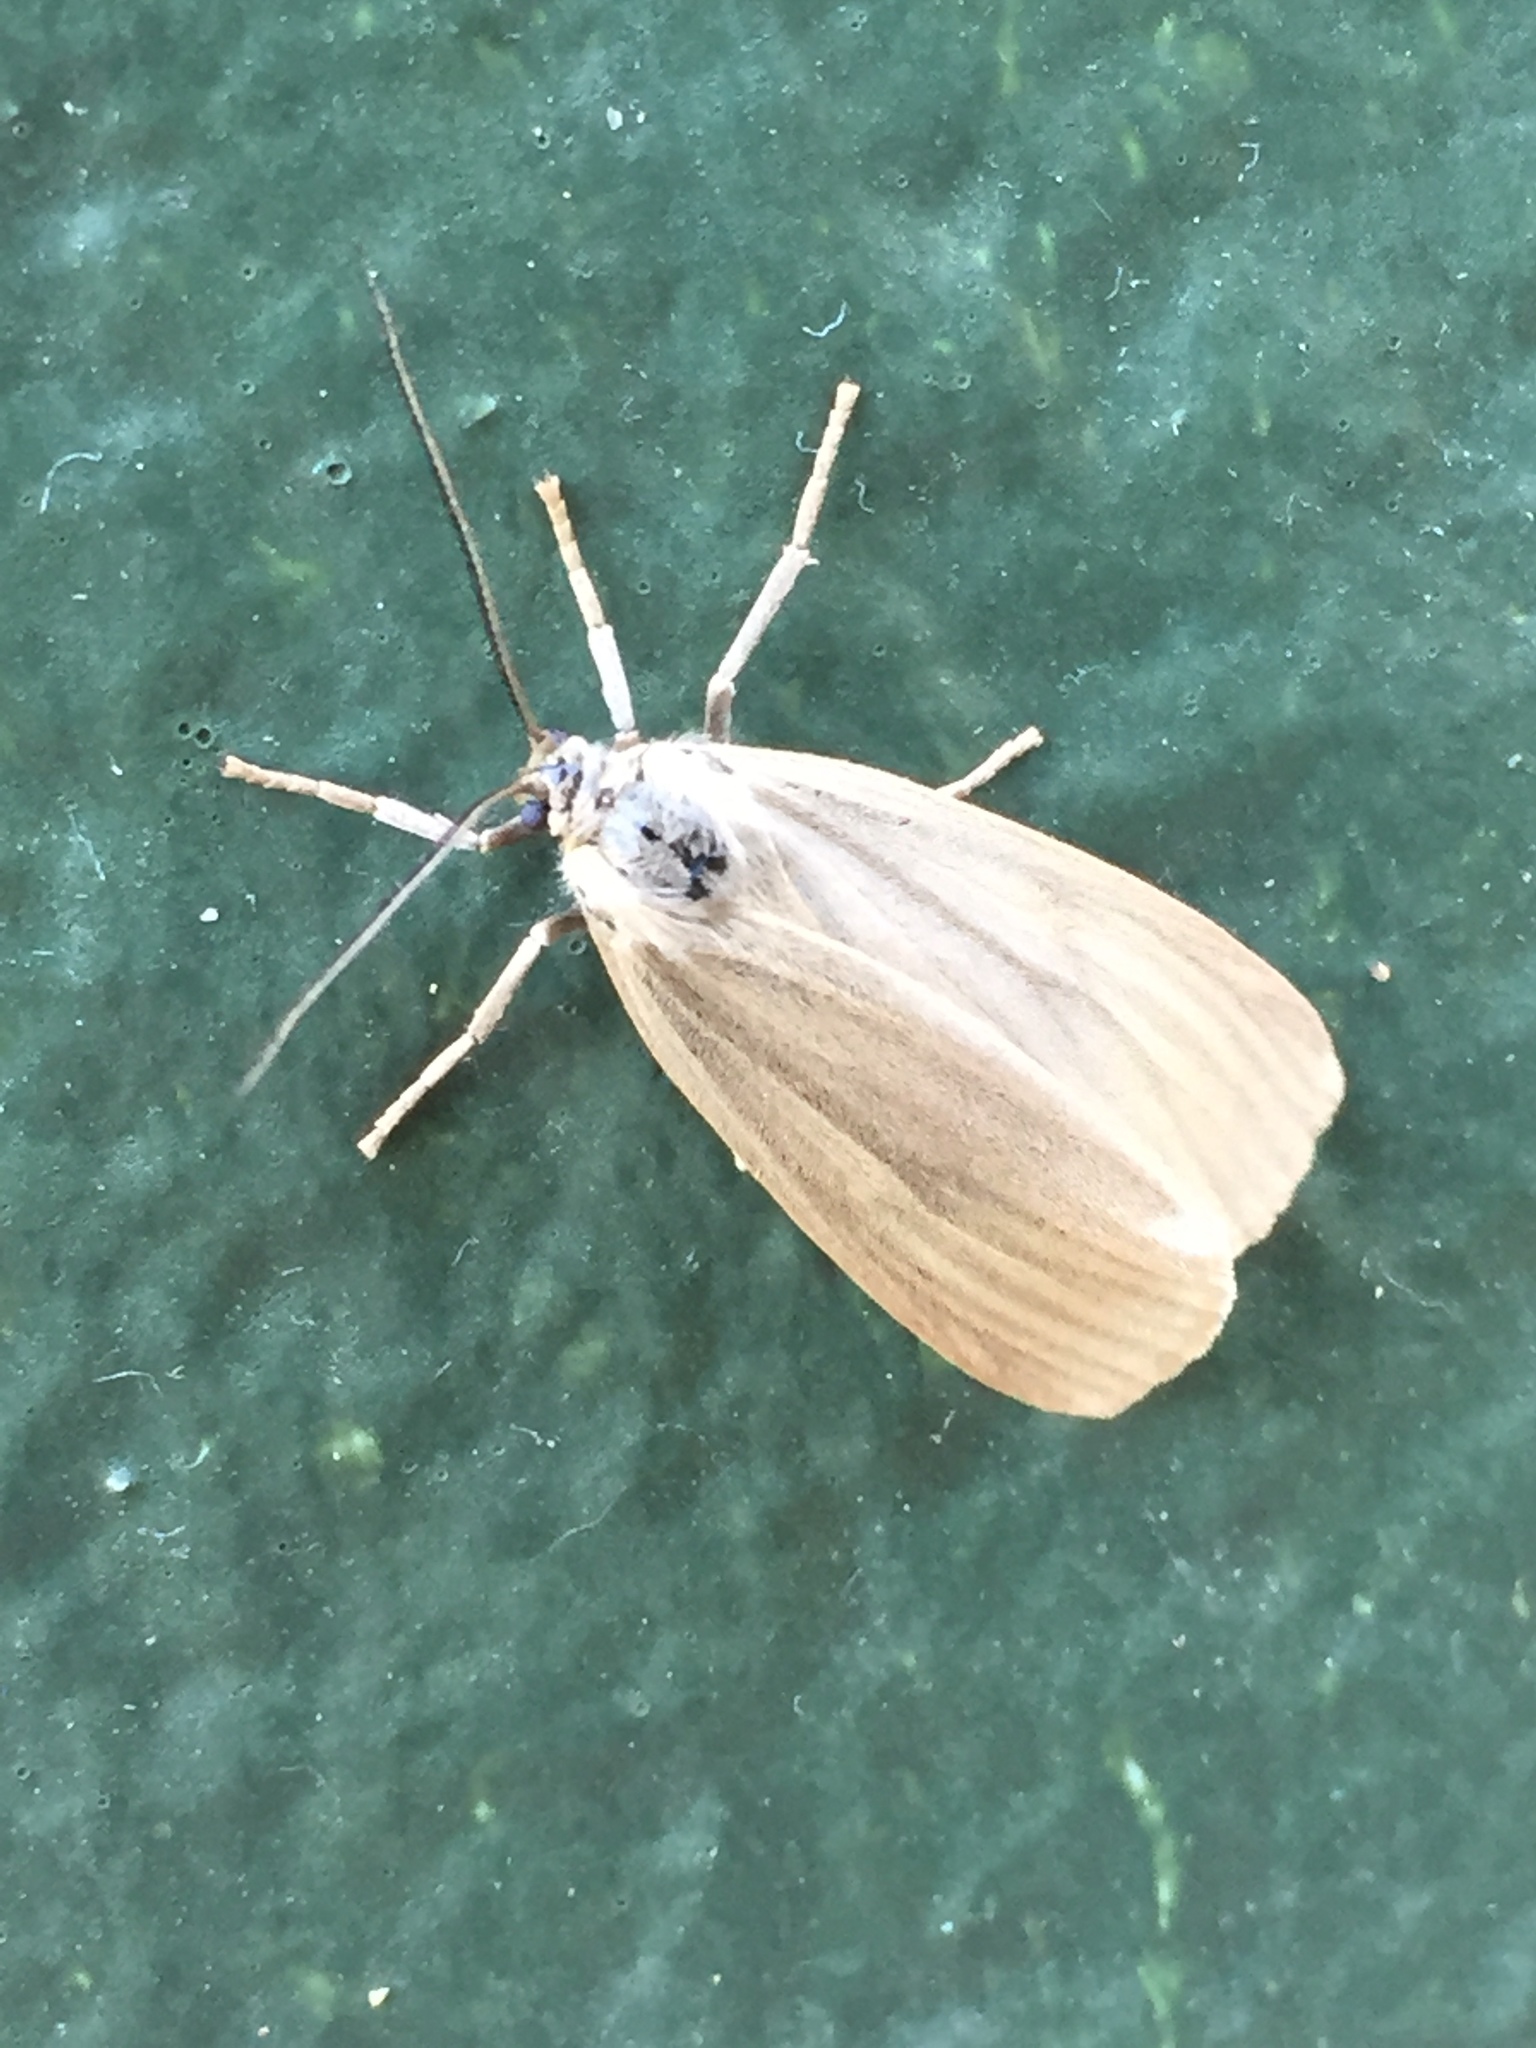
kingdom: Animalia
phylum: Arthropoda
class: Insecta
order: Lepidoptera
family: Notodontidae
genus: Phryganidia
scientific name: Phryganidia californica
